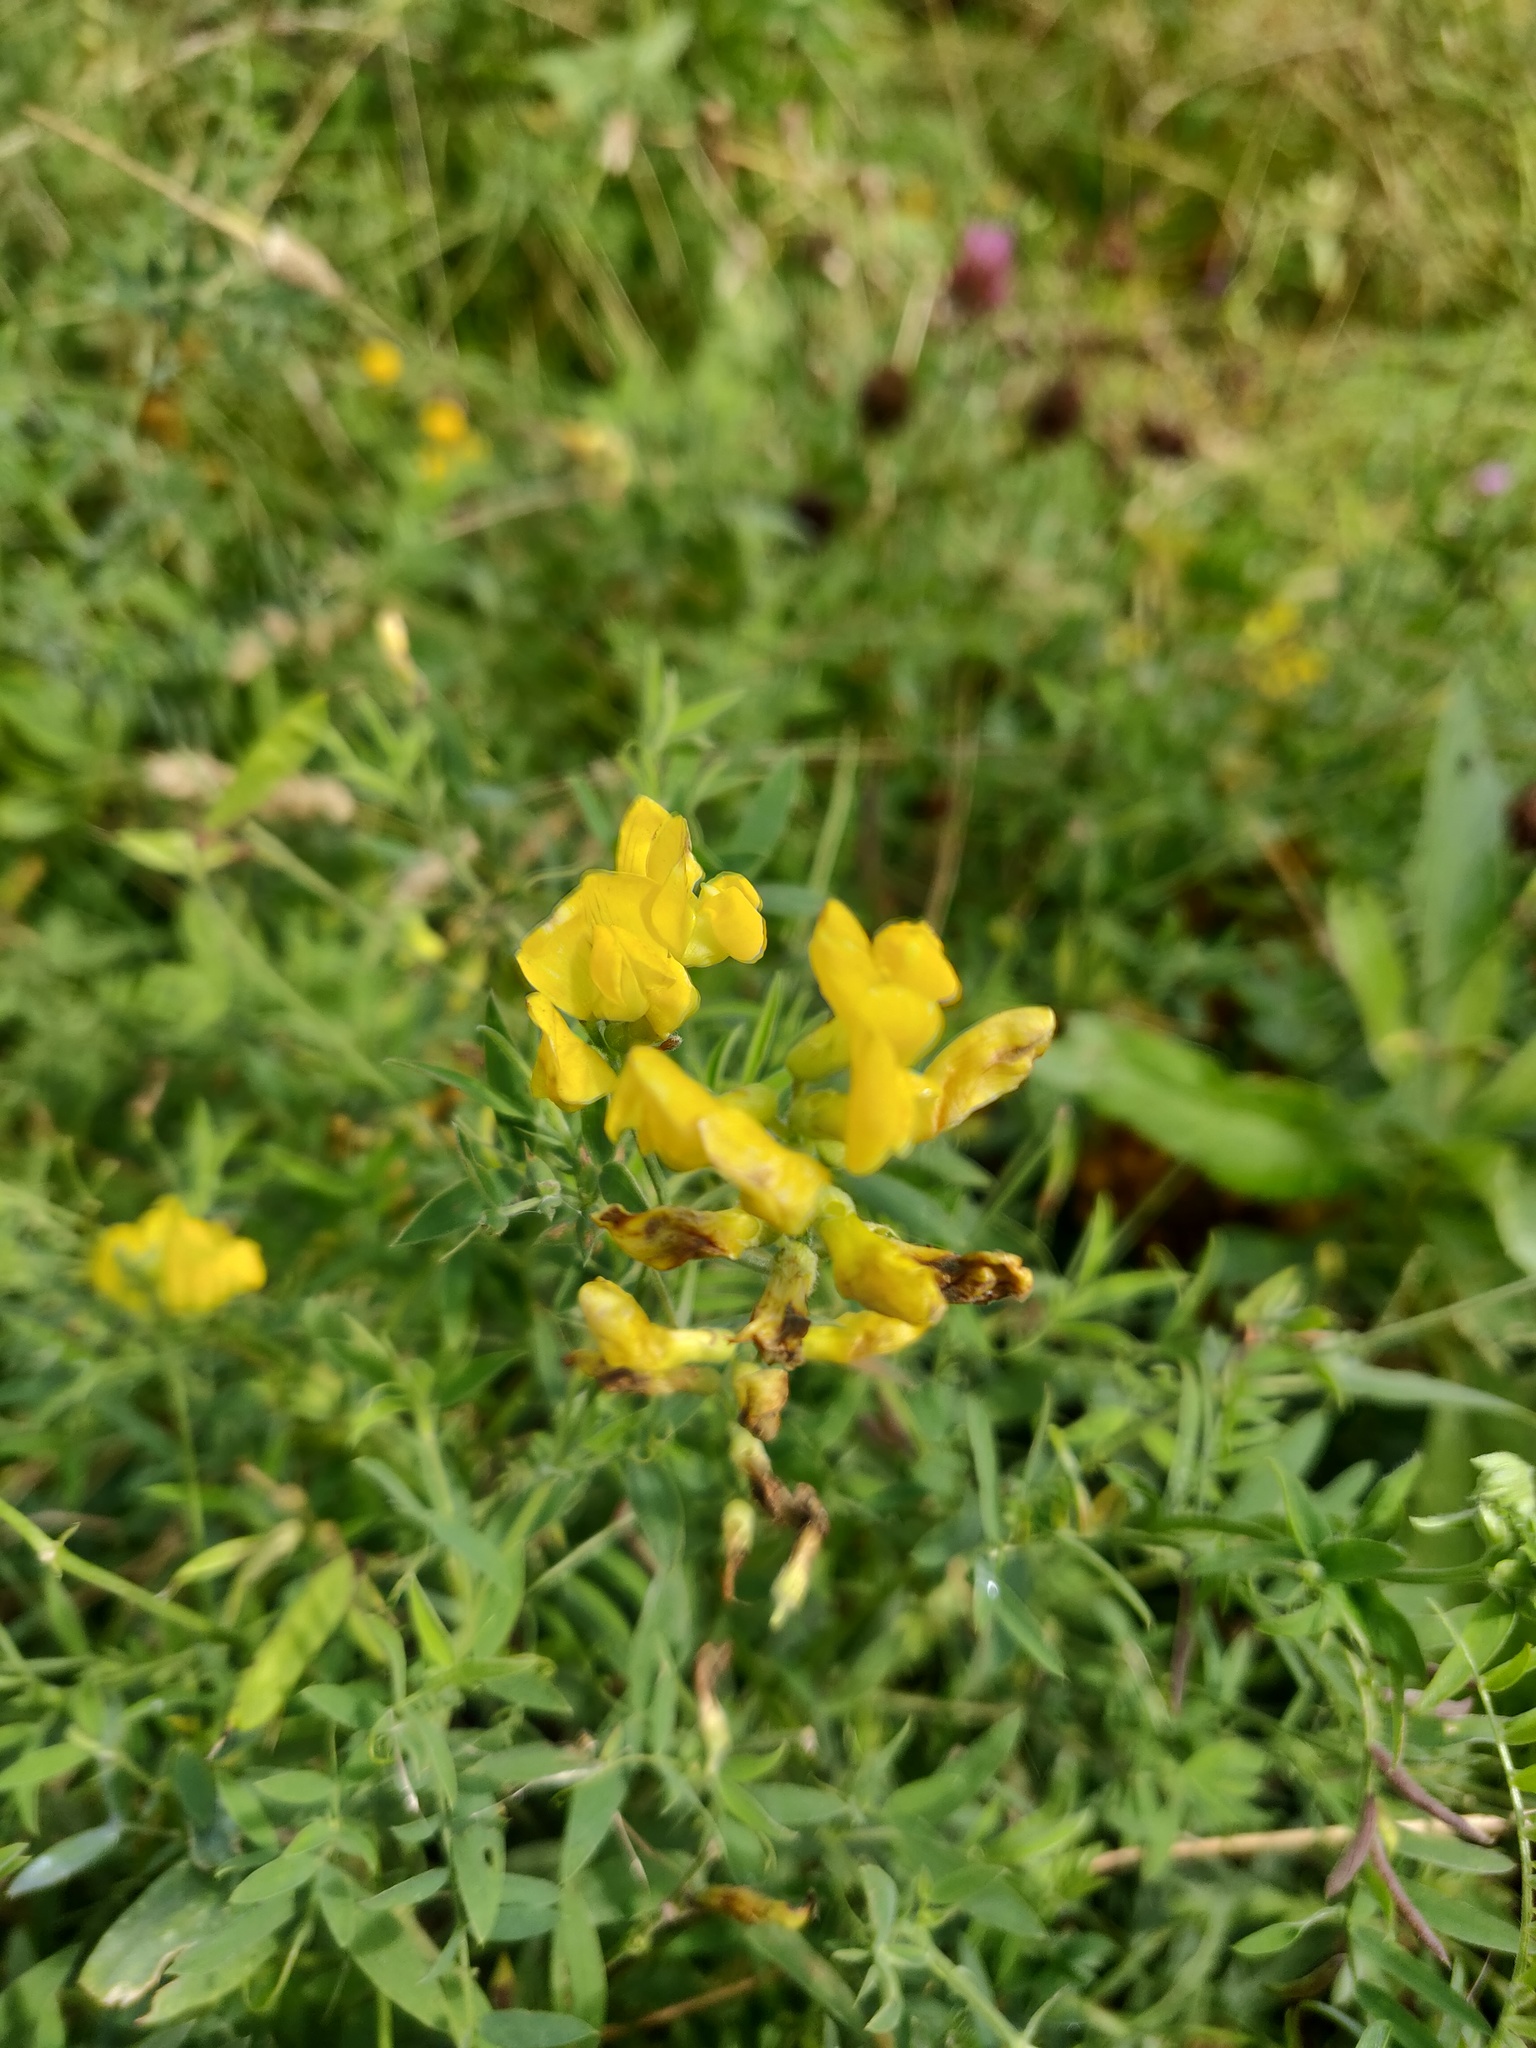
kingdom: Plantae
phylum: Tracheophyta
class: Magnoliopsida
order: Fabales
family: Fabaceae
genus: Lathyrus
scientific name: Lathyrus pratensis
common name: Meadow vetchling
